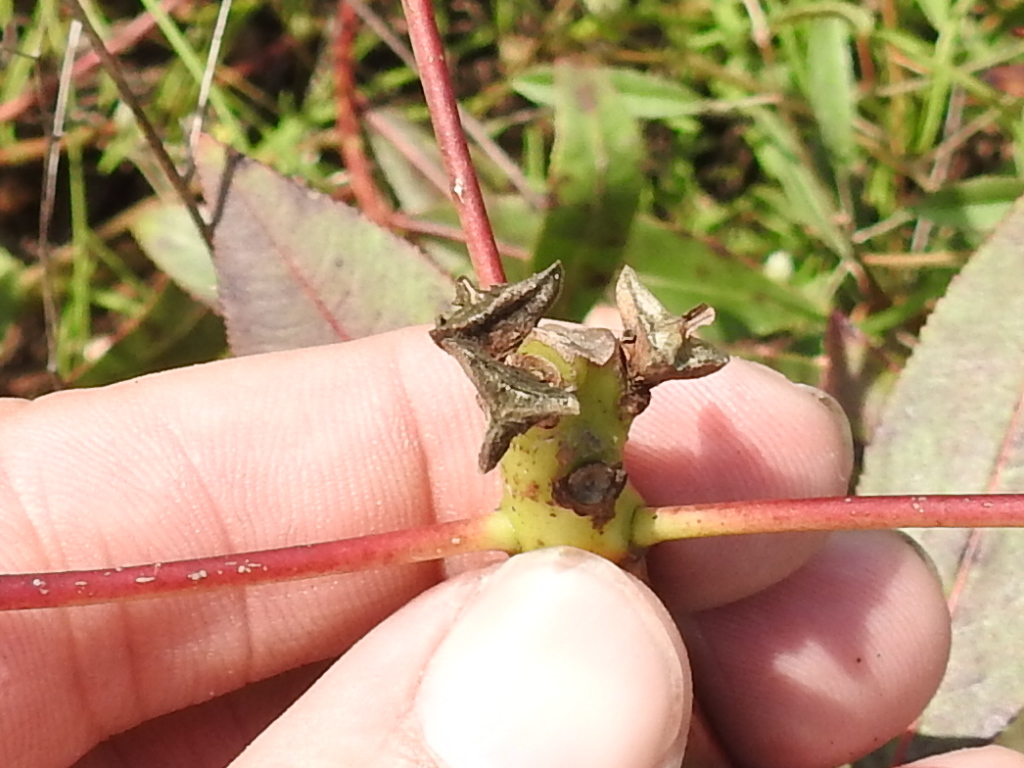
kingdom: Plantae
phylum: Tracheophyta
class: Magnoliopsida
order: Malpighiales
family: Euphorbiaceae
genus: Stillingia
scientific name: Stillingia sylvatica
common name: Queen's-delight
